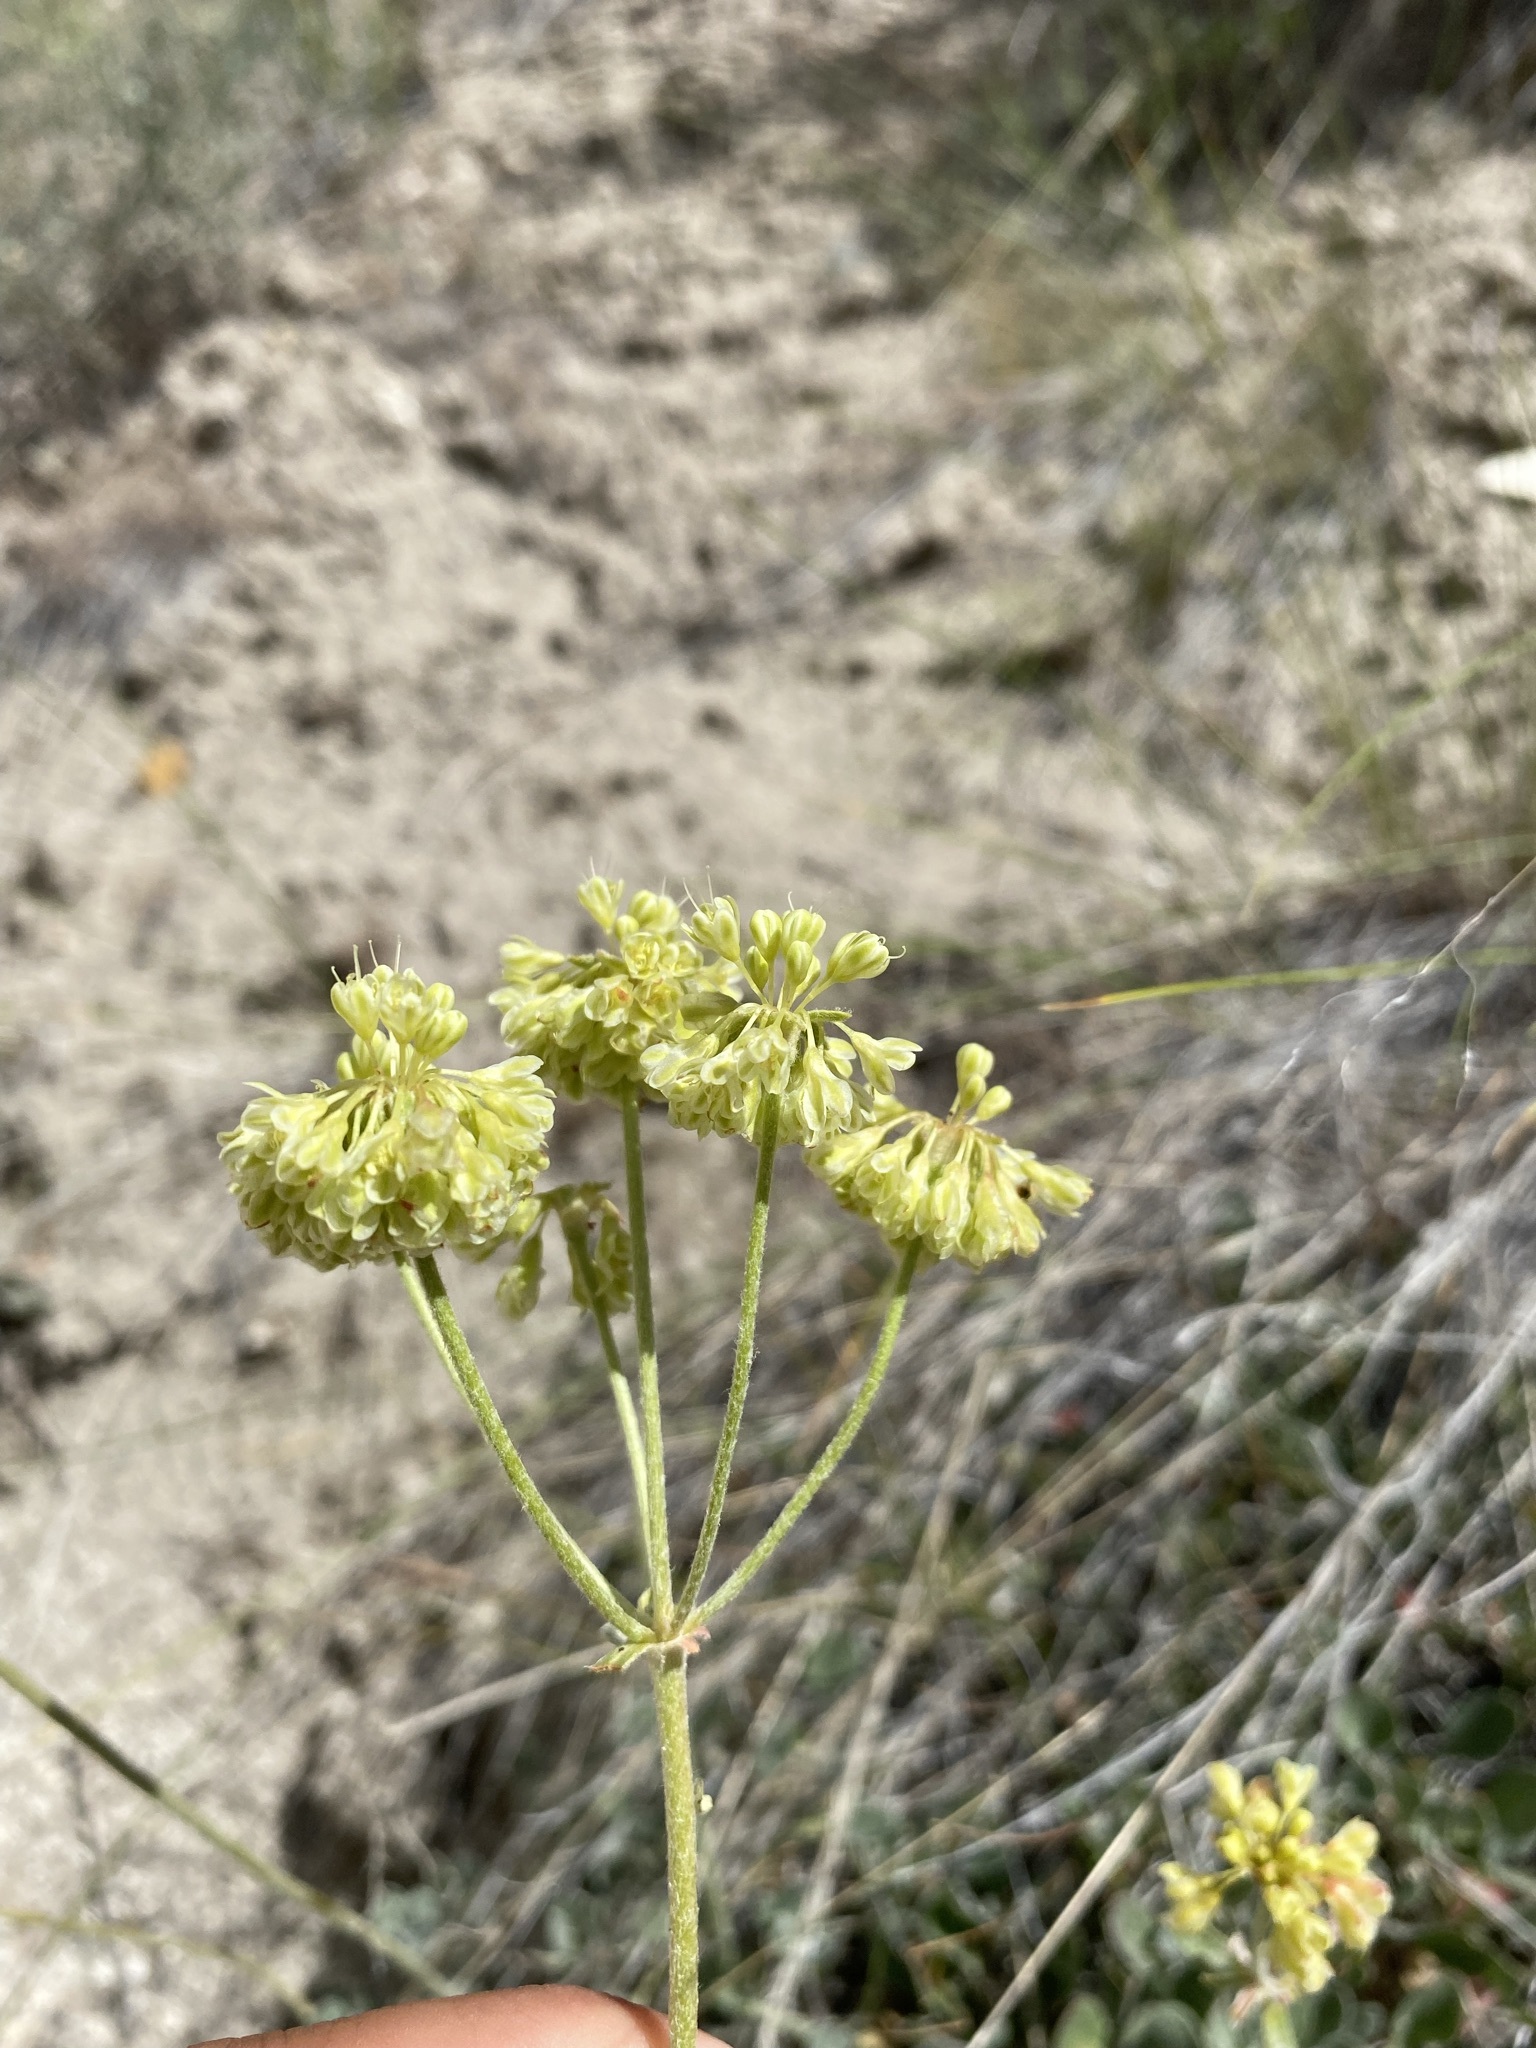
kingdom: Plantae
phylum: Tracheophyta
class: Magnoliopsida
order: Caryophyllales
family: Polygonaceae
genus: Eriogonum
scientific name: Eriogonum umbellatum
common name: Sulfur-buckwheat
